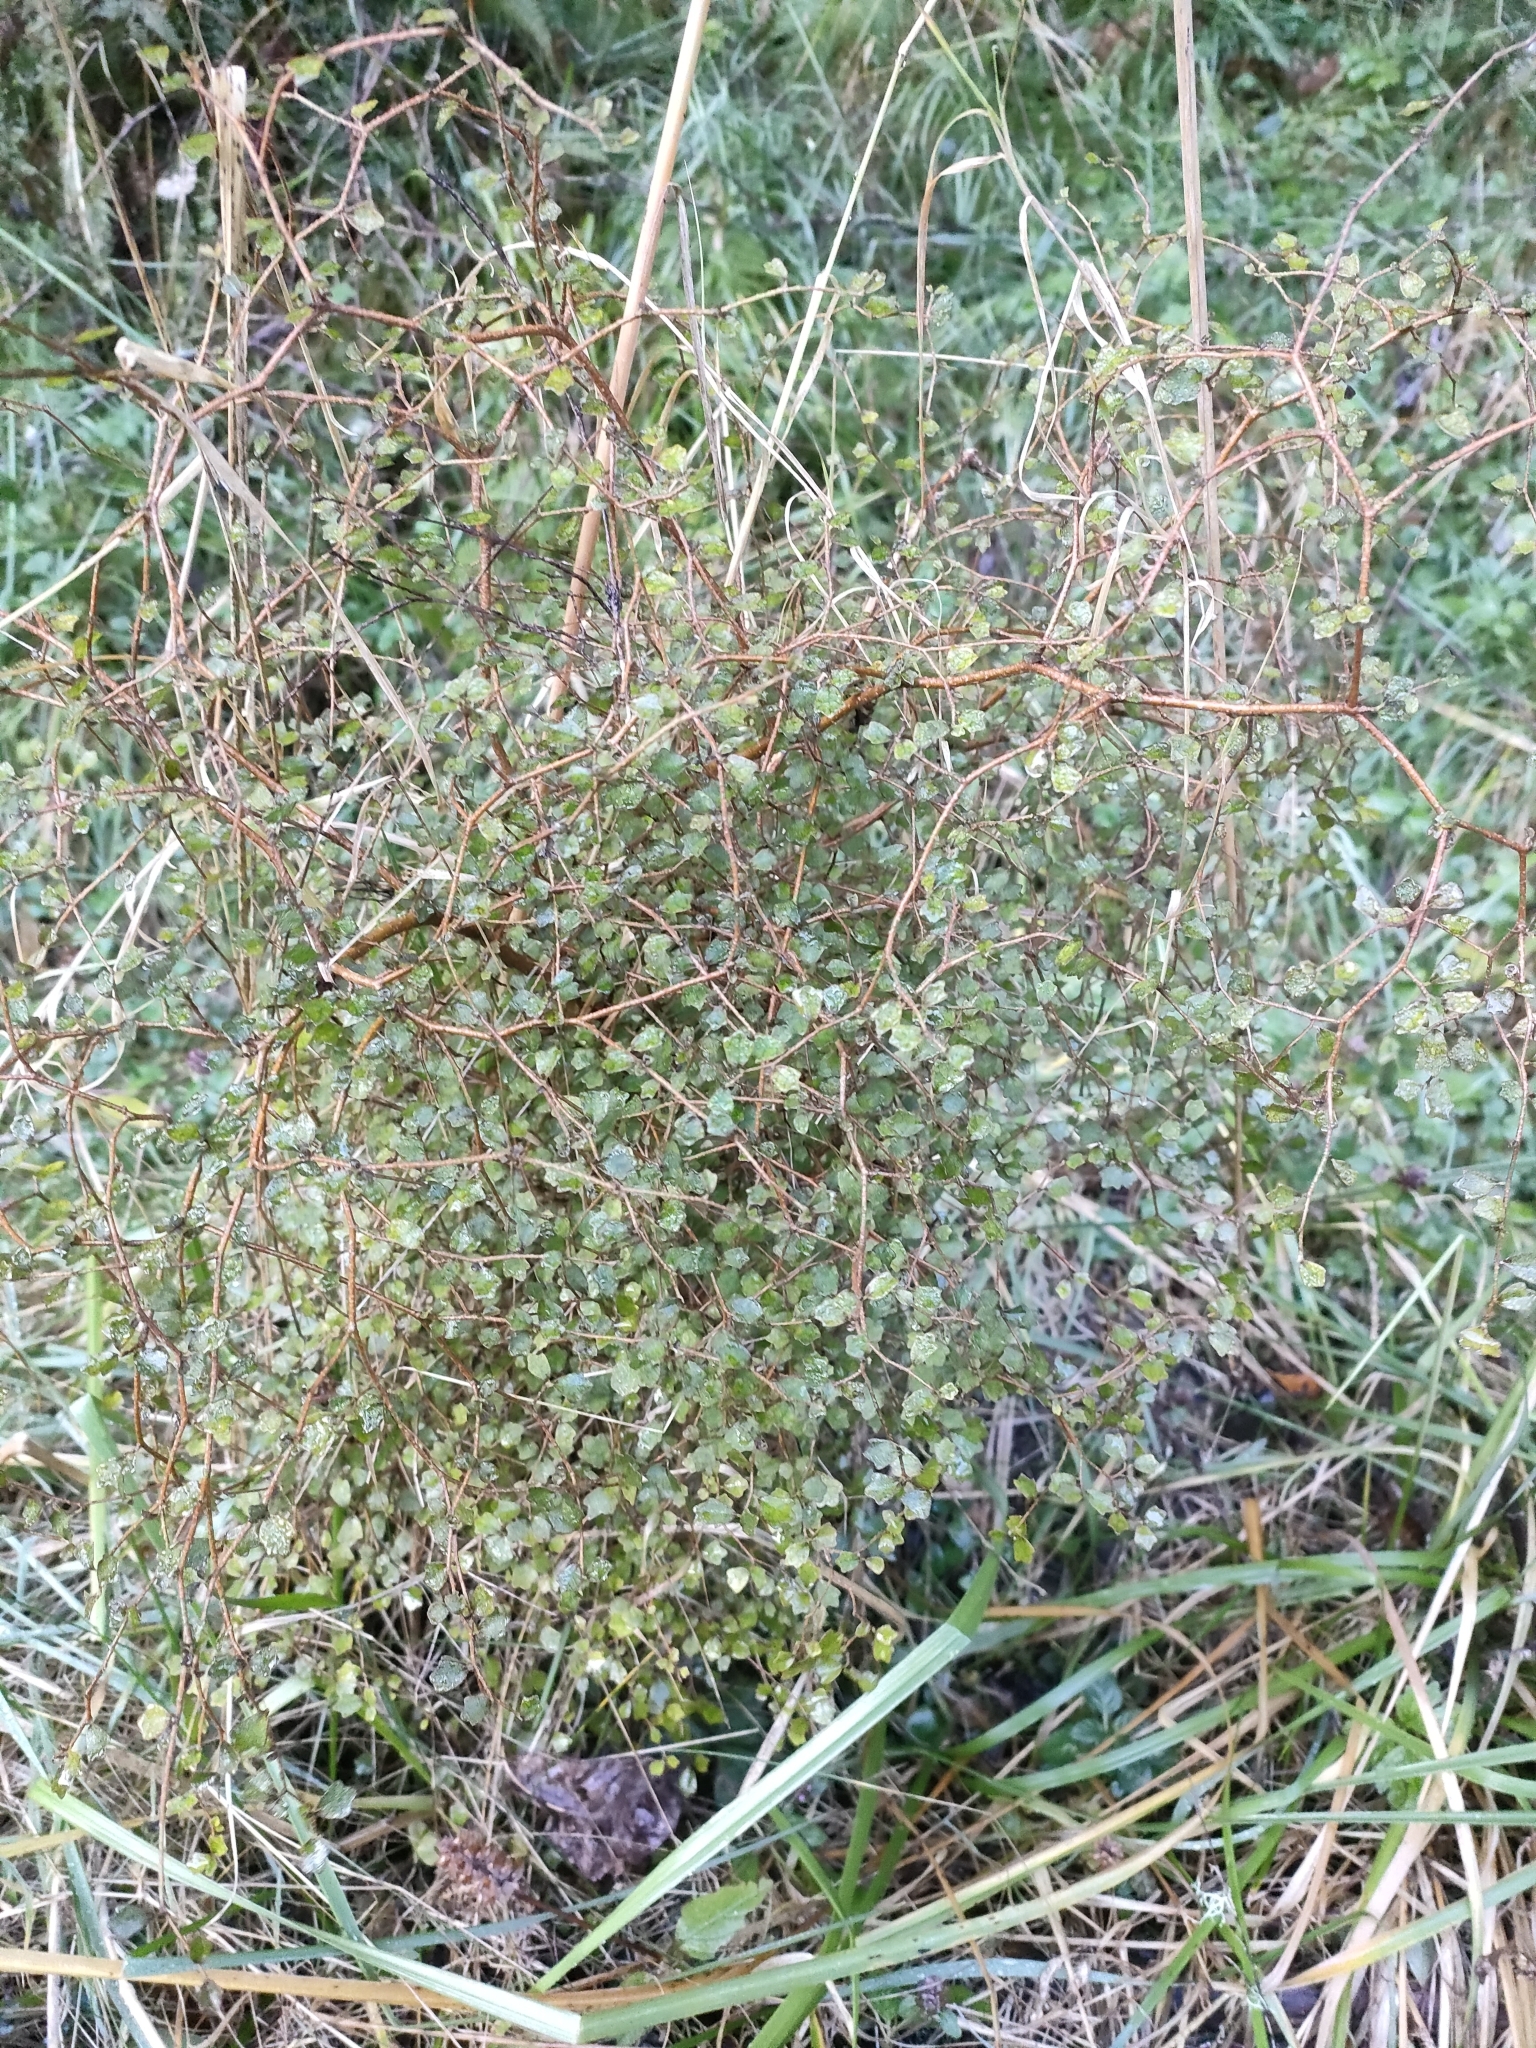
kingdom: Plantae
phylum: Tracheophyta
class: Magnoliopsida
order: Apiales
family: Pennantiaceae
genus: Pennantia
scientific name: Pennantia corymbosa
